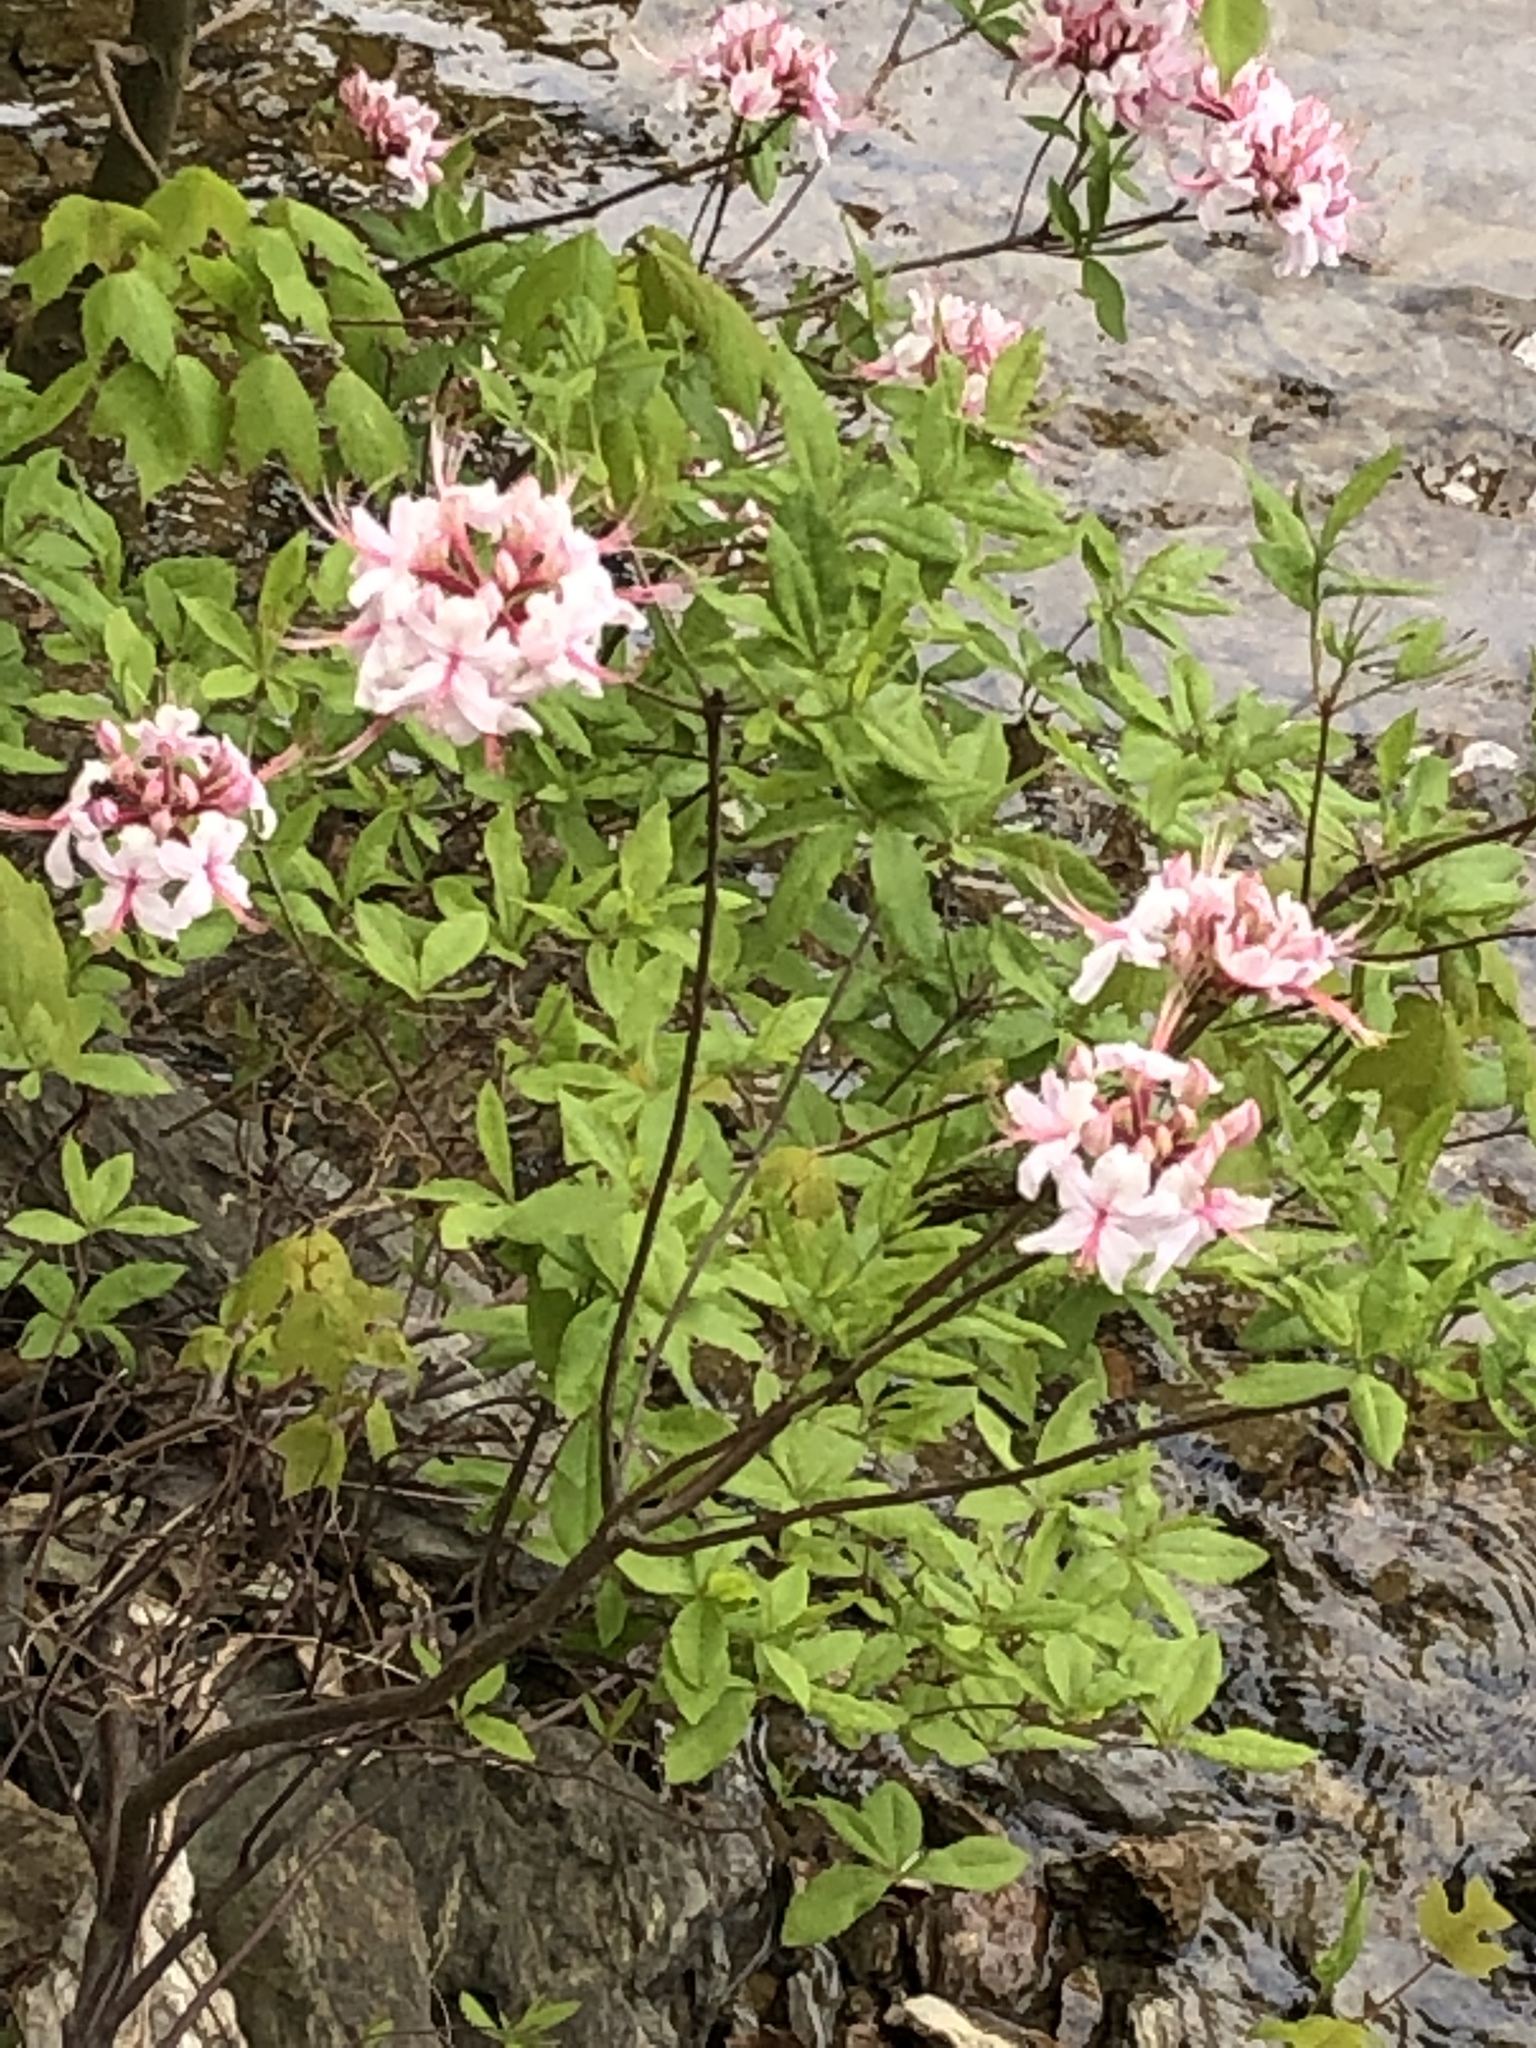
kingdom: Plantae
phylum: Tracheophyta
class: Magnoliopsida
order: Ericales
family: Ericaceae
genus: Rhododendron
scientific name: Rhododendron periclymenoides
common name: Election-pink
